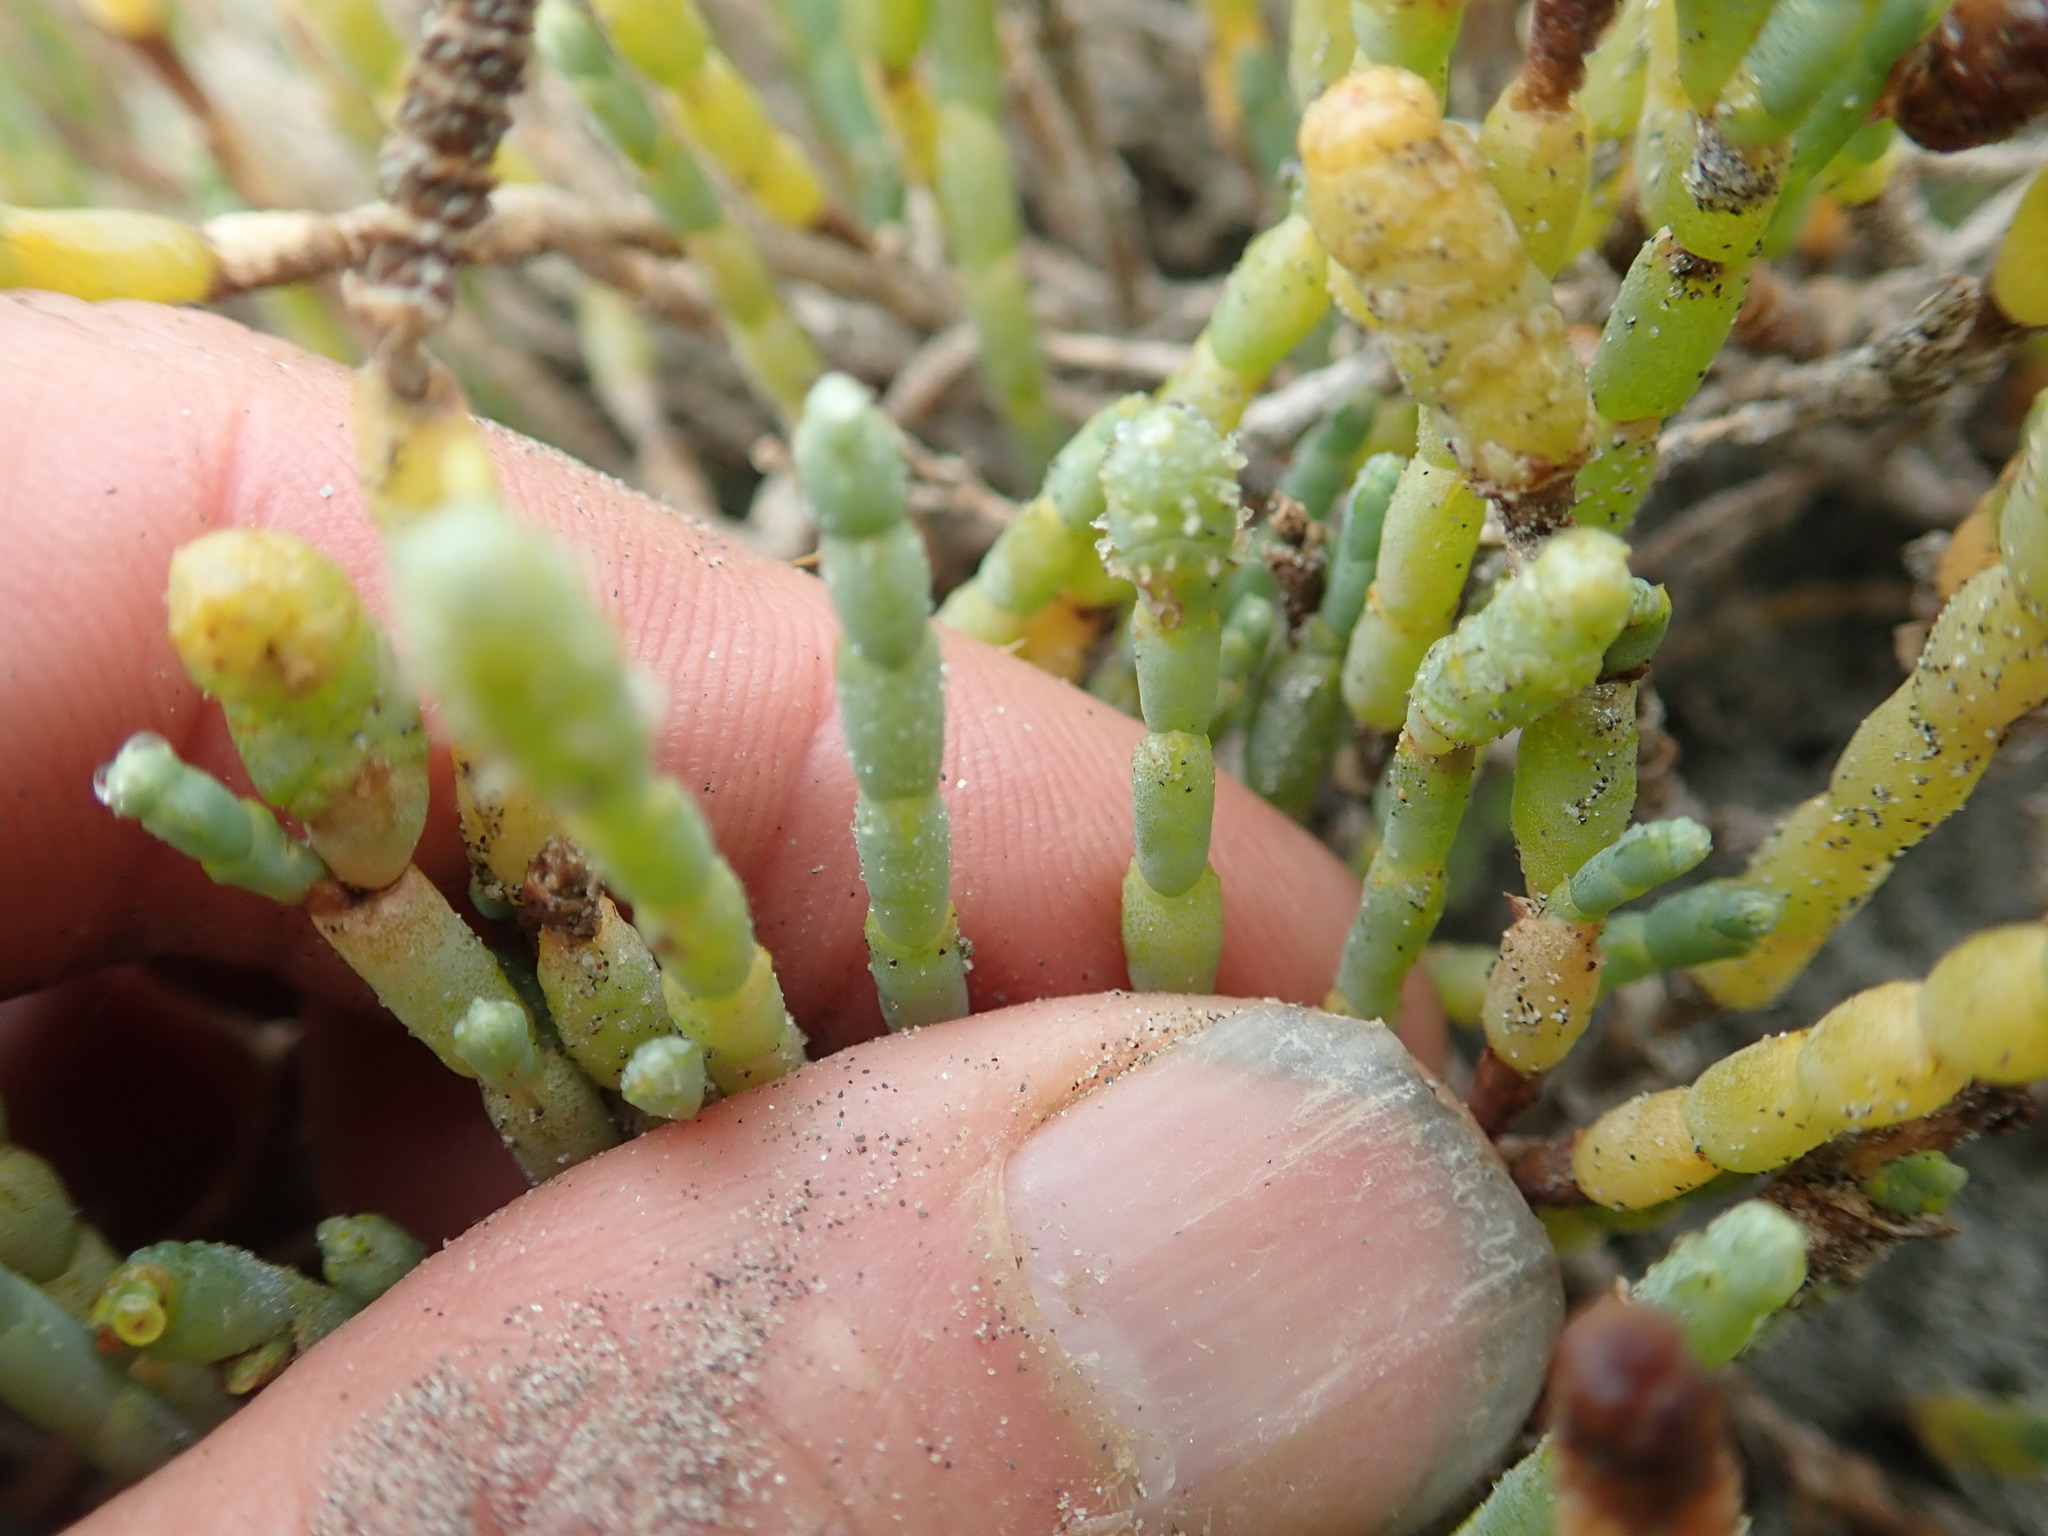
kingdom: Plantae
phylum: Tracheophyta
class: Magnoliopsida
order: Caryophyllales
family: Amaranthaceae
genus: Salicornia
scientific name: Salicornia quinqueflora
